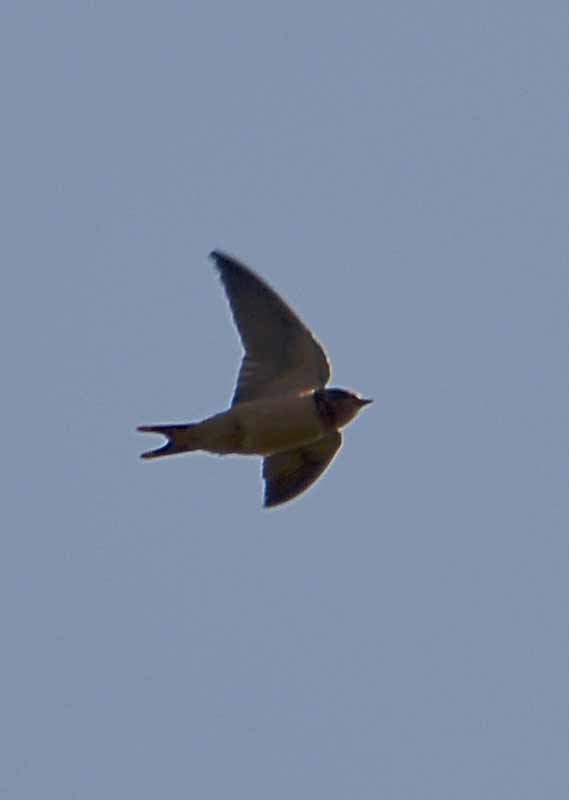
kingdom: Animalia
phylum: Chordata
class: Aves
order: Passeriformes
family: Hirundinidae
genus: Hirundo
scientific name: Hirundo rustica
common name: Barn swallow
